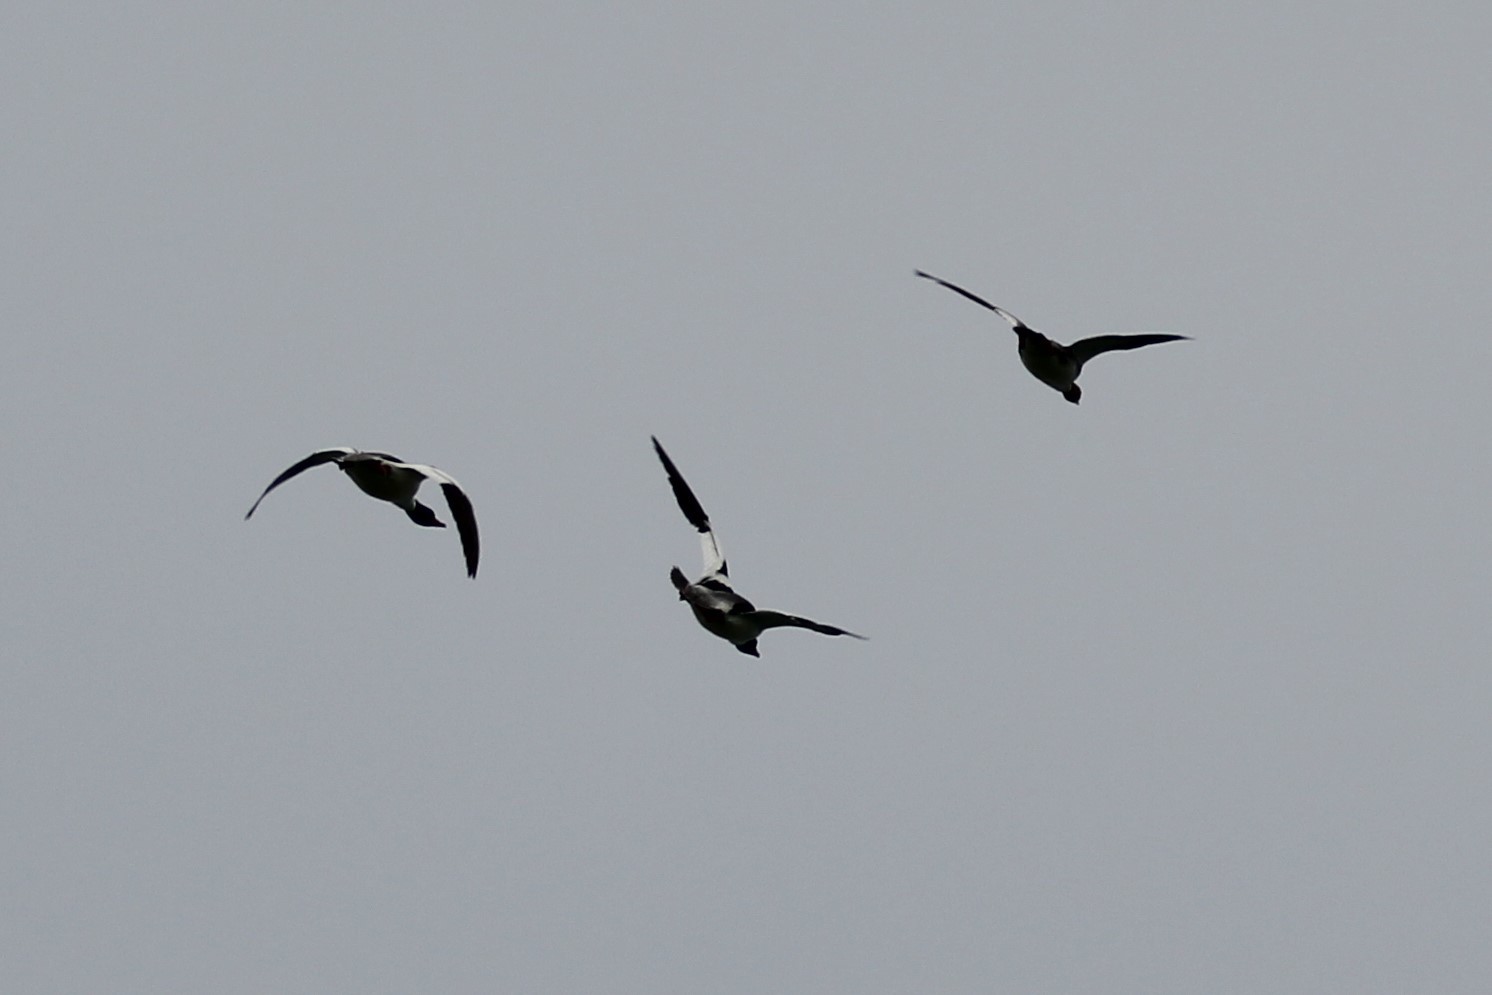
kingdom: Animalia
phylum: Chordata
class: Aves
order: Anseriformes
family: Anatidae
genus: Mergus
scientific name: Mergus merganser
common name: Common merganser
